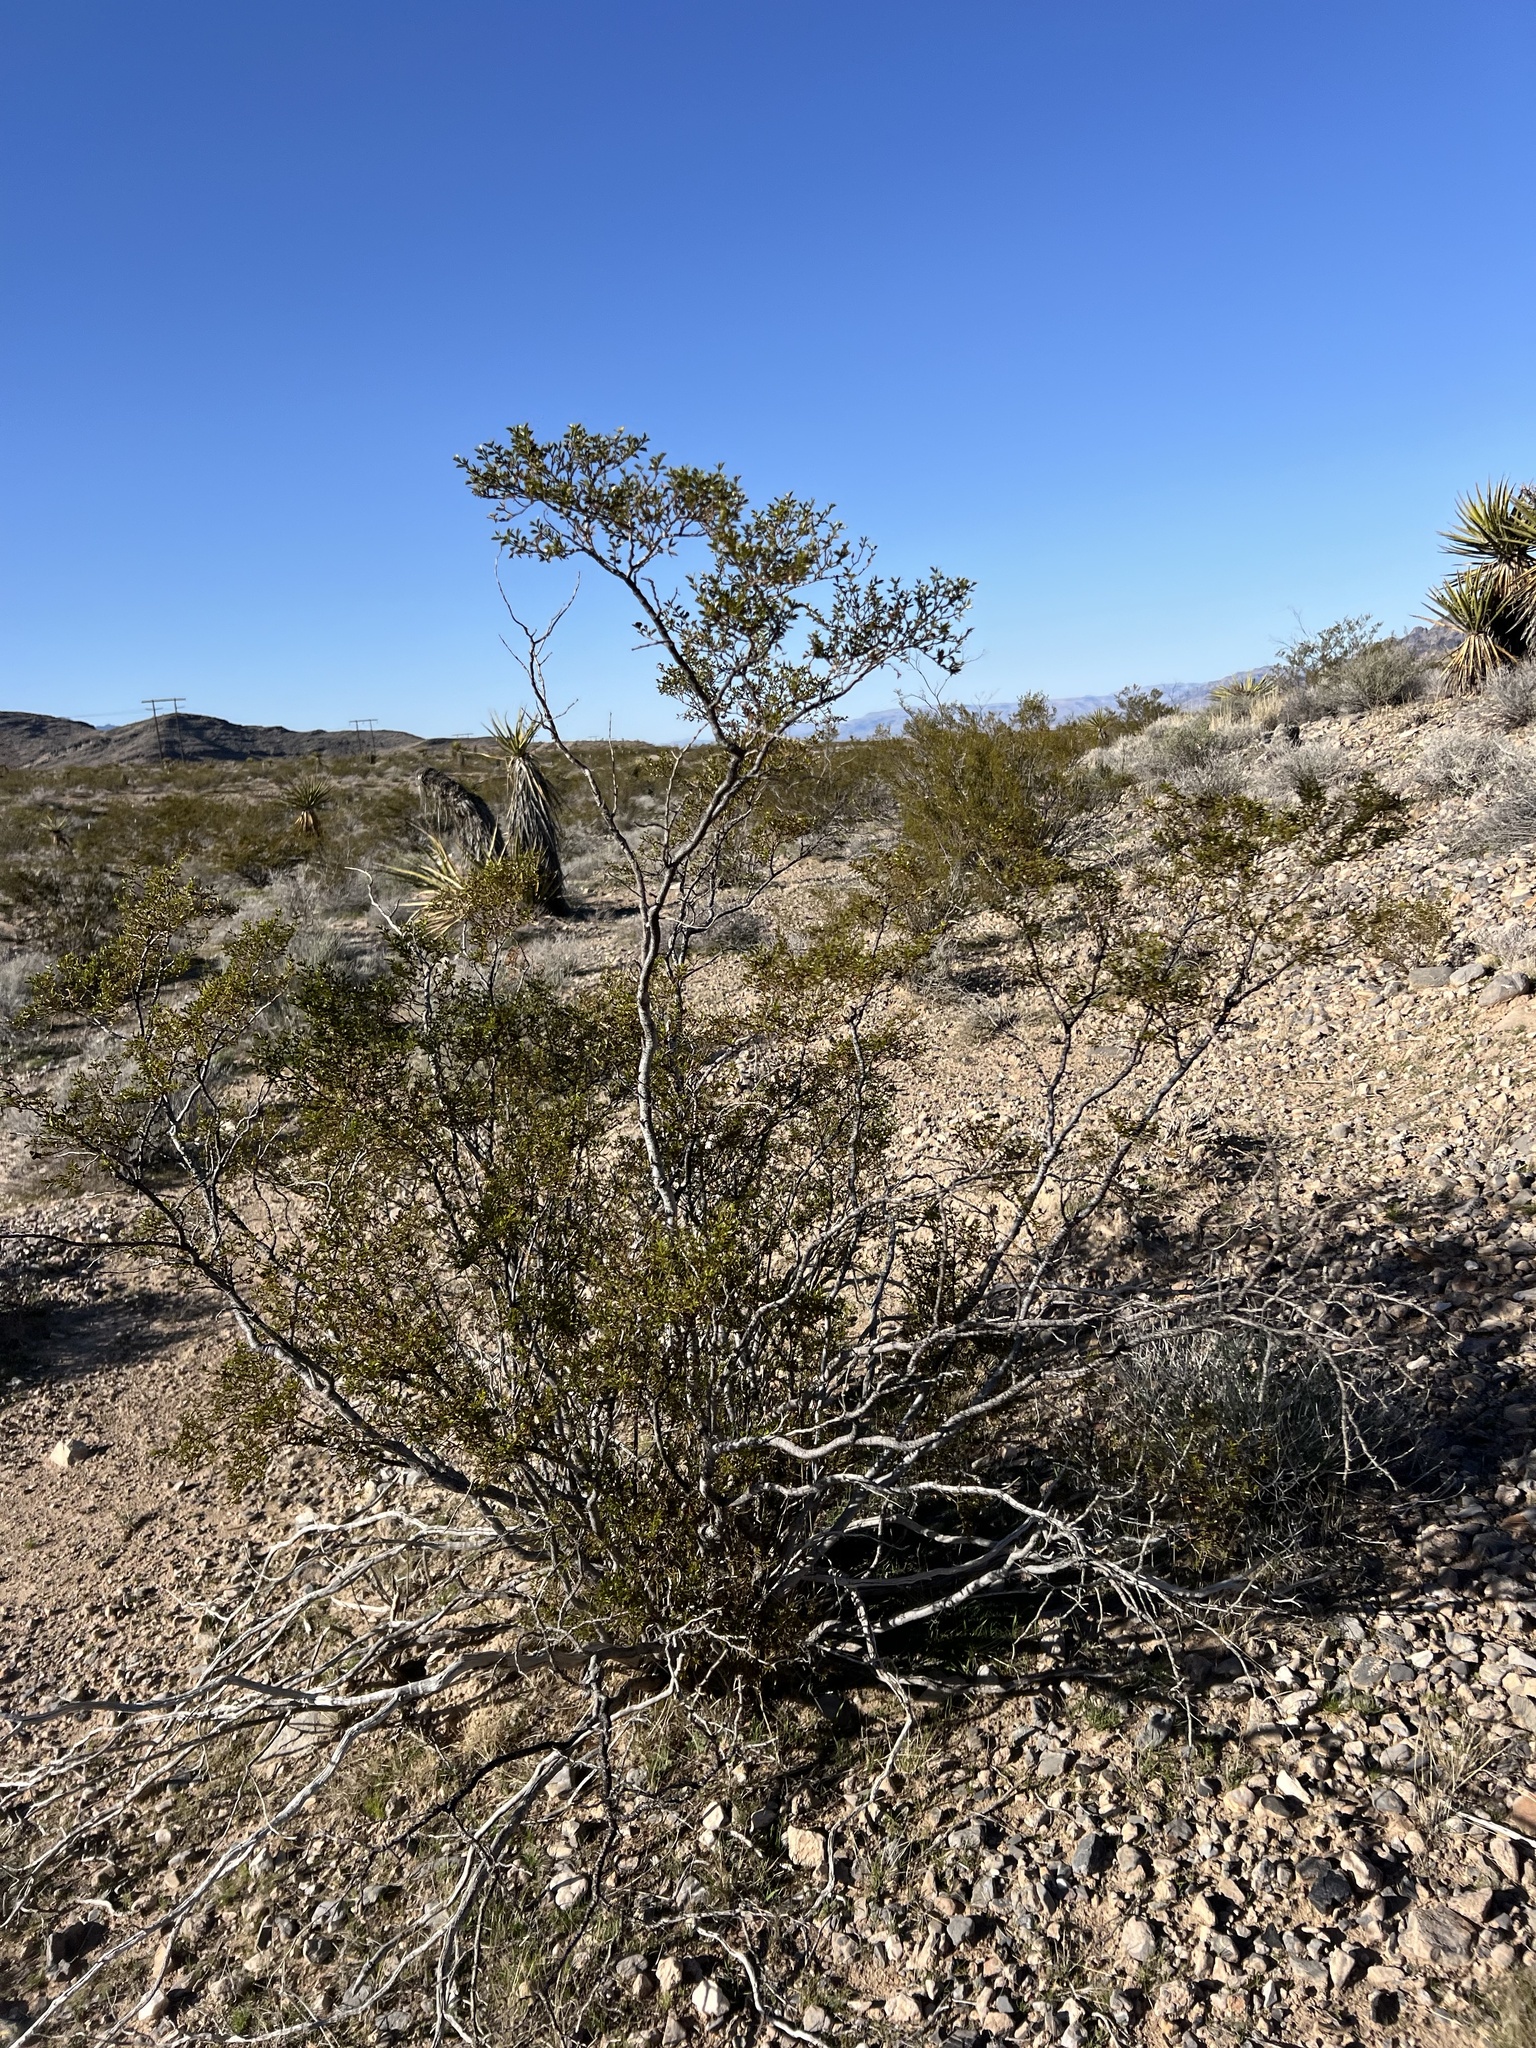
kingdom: Plantae
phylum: Tracheophyta
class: Magnoliopsida
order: Zygophyllales
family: Zygophyllaceae
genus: Larrea
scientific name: Larrea tridentata
